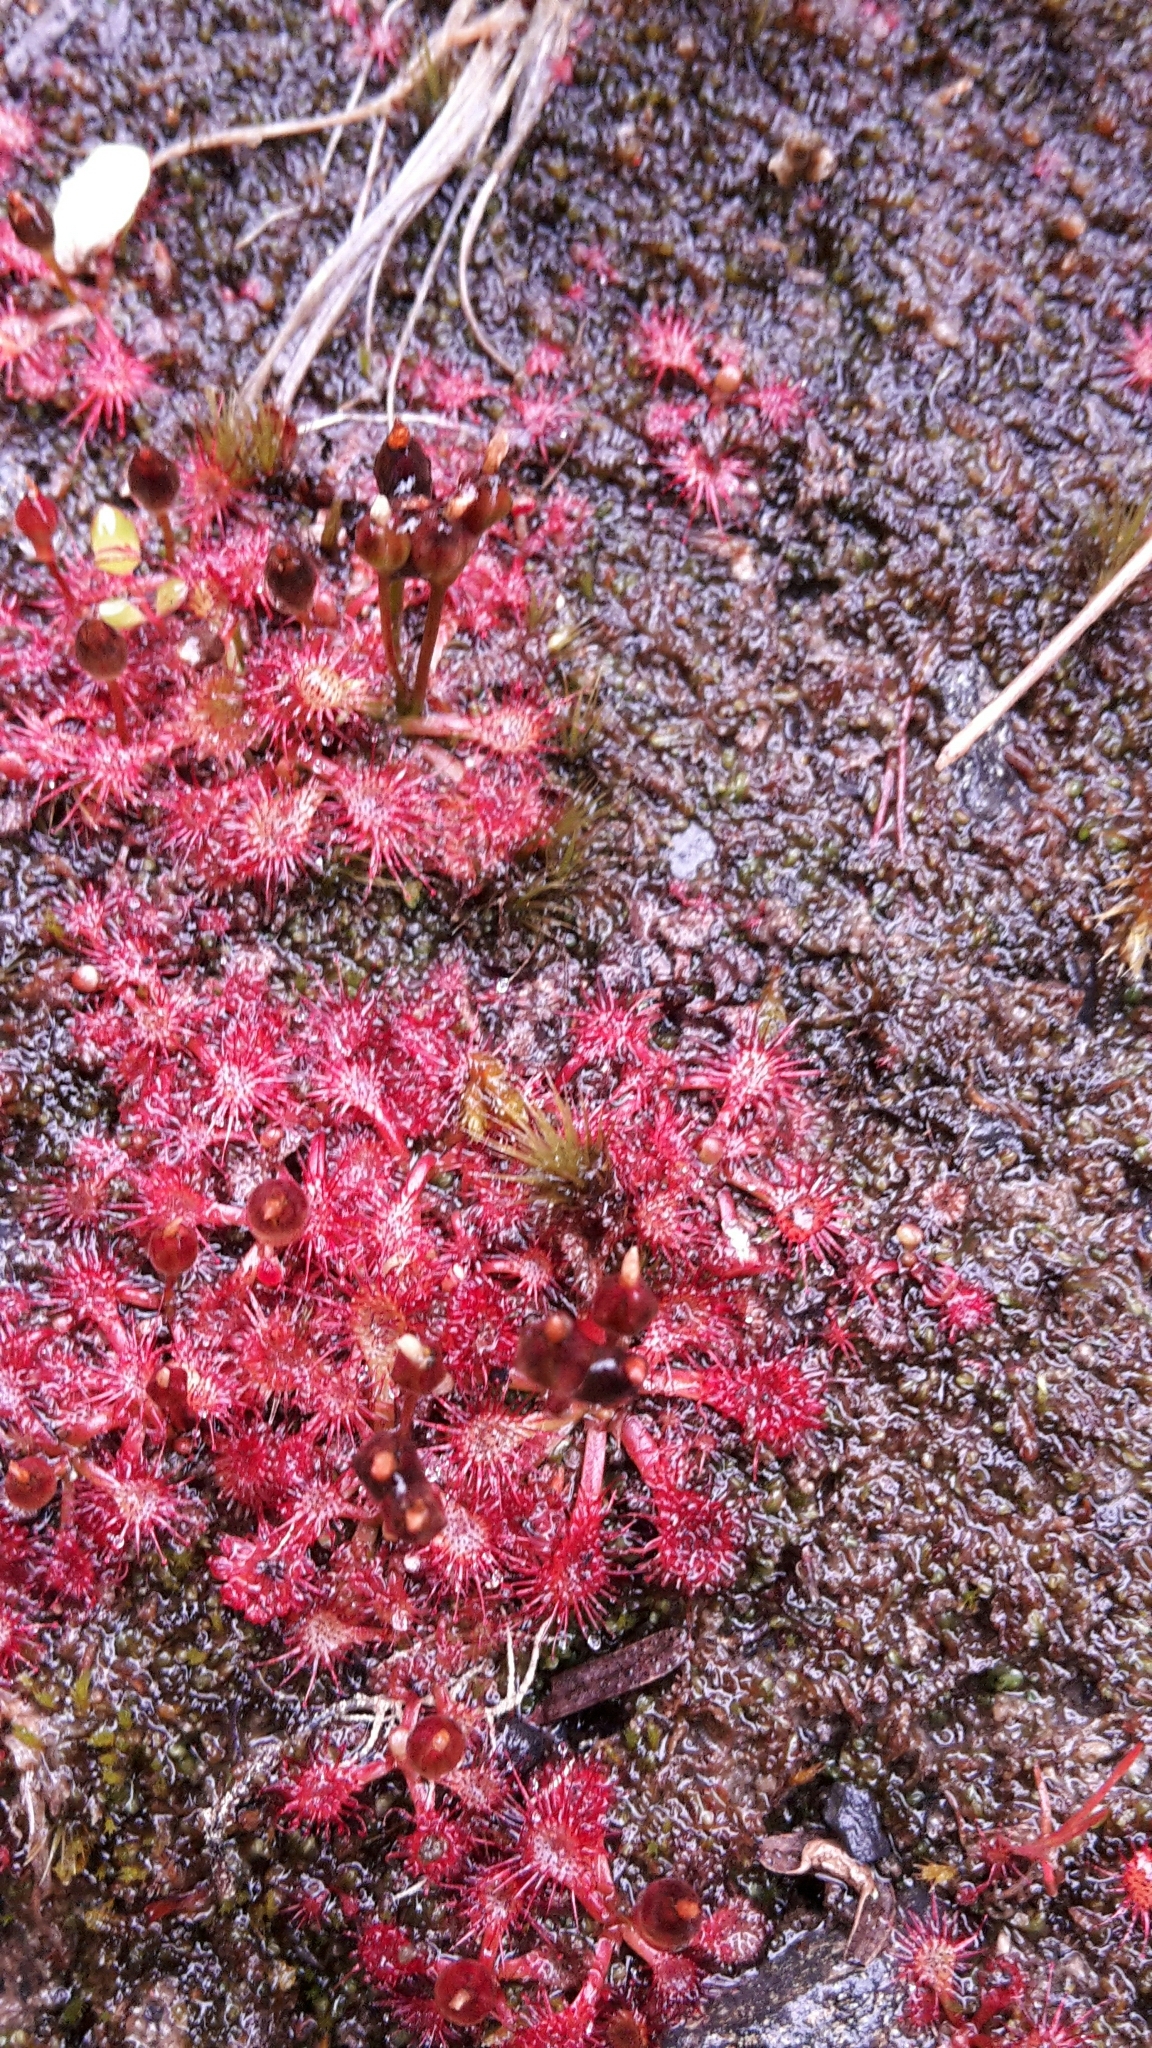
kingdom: Plantae
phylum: Tracheophyta
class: Magnoliopsida
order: Caryophyllales
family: Droseraceae
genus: Drosera
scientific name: Drosera spatulata
